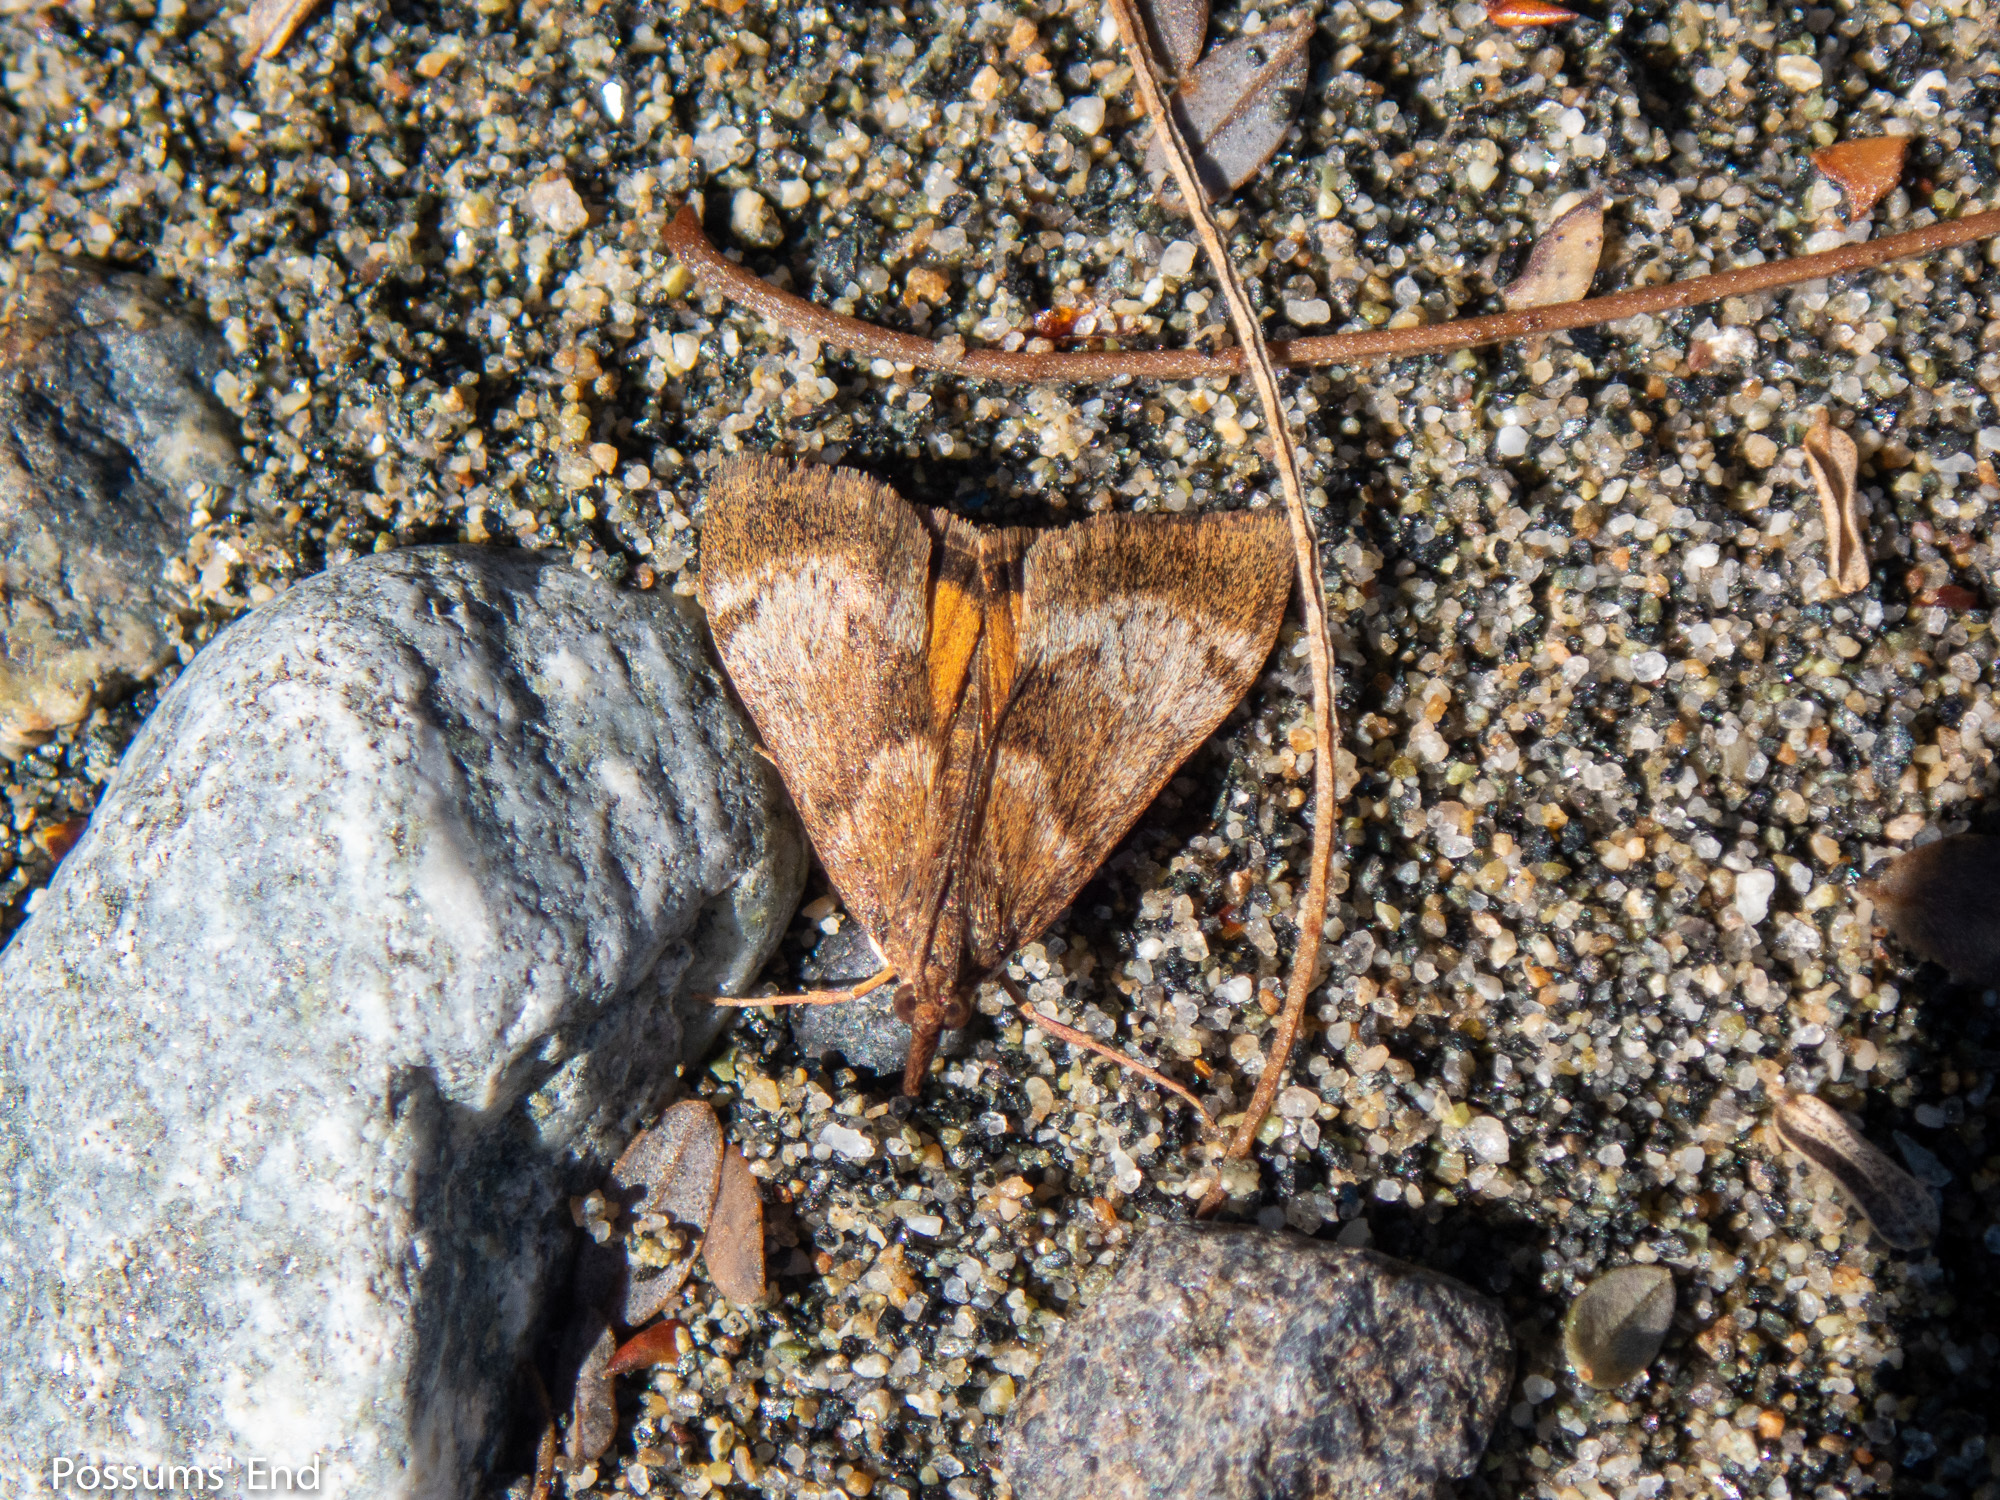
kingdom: Animalia
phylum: Arthropoda
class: Insecta
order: Lepidoptera
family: Crambidae
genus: Uresiphita
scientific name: Uresiphita
